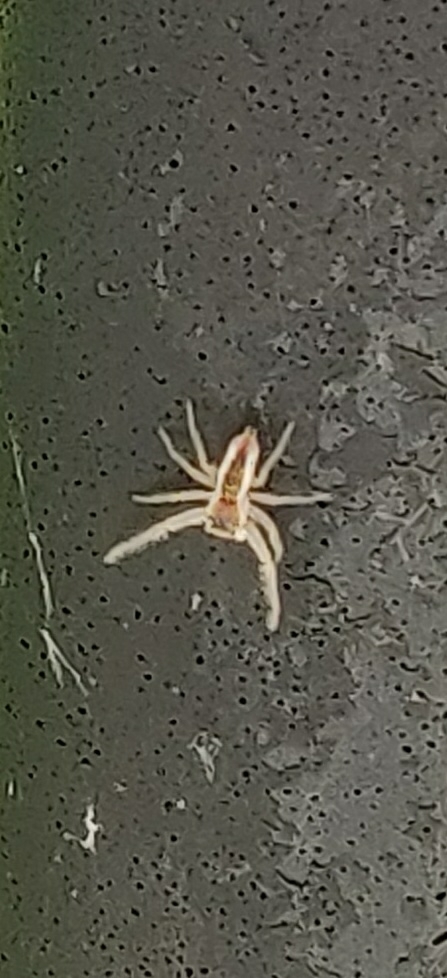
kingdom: Animalia
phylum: Arthropoda
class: Arachnida
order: Araneae
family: Salticidae
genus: Hentzia
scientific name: Hentzia mitrata
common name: White-jawed jumping spider
